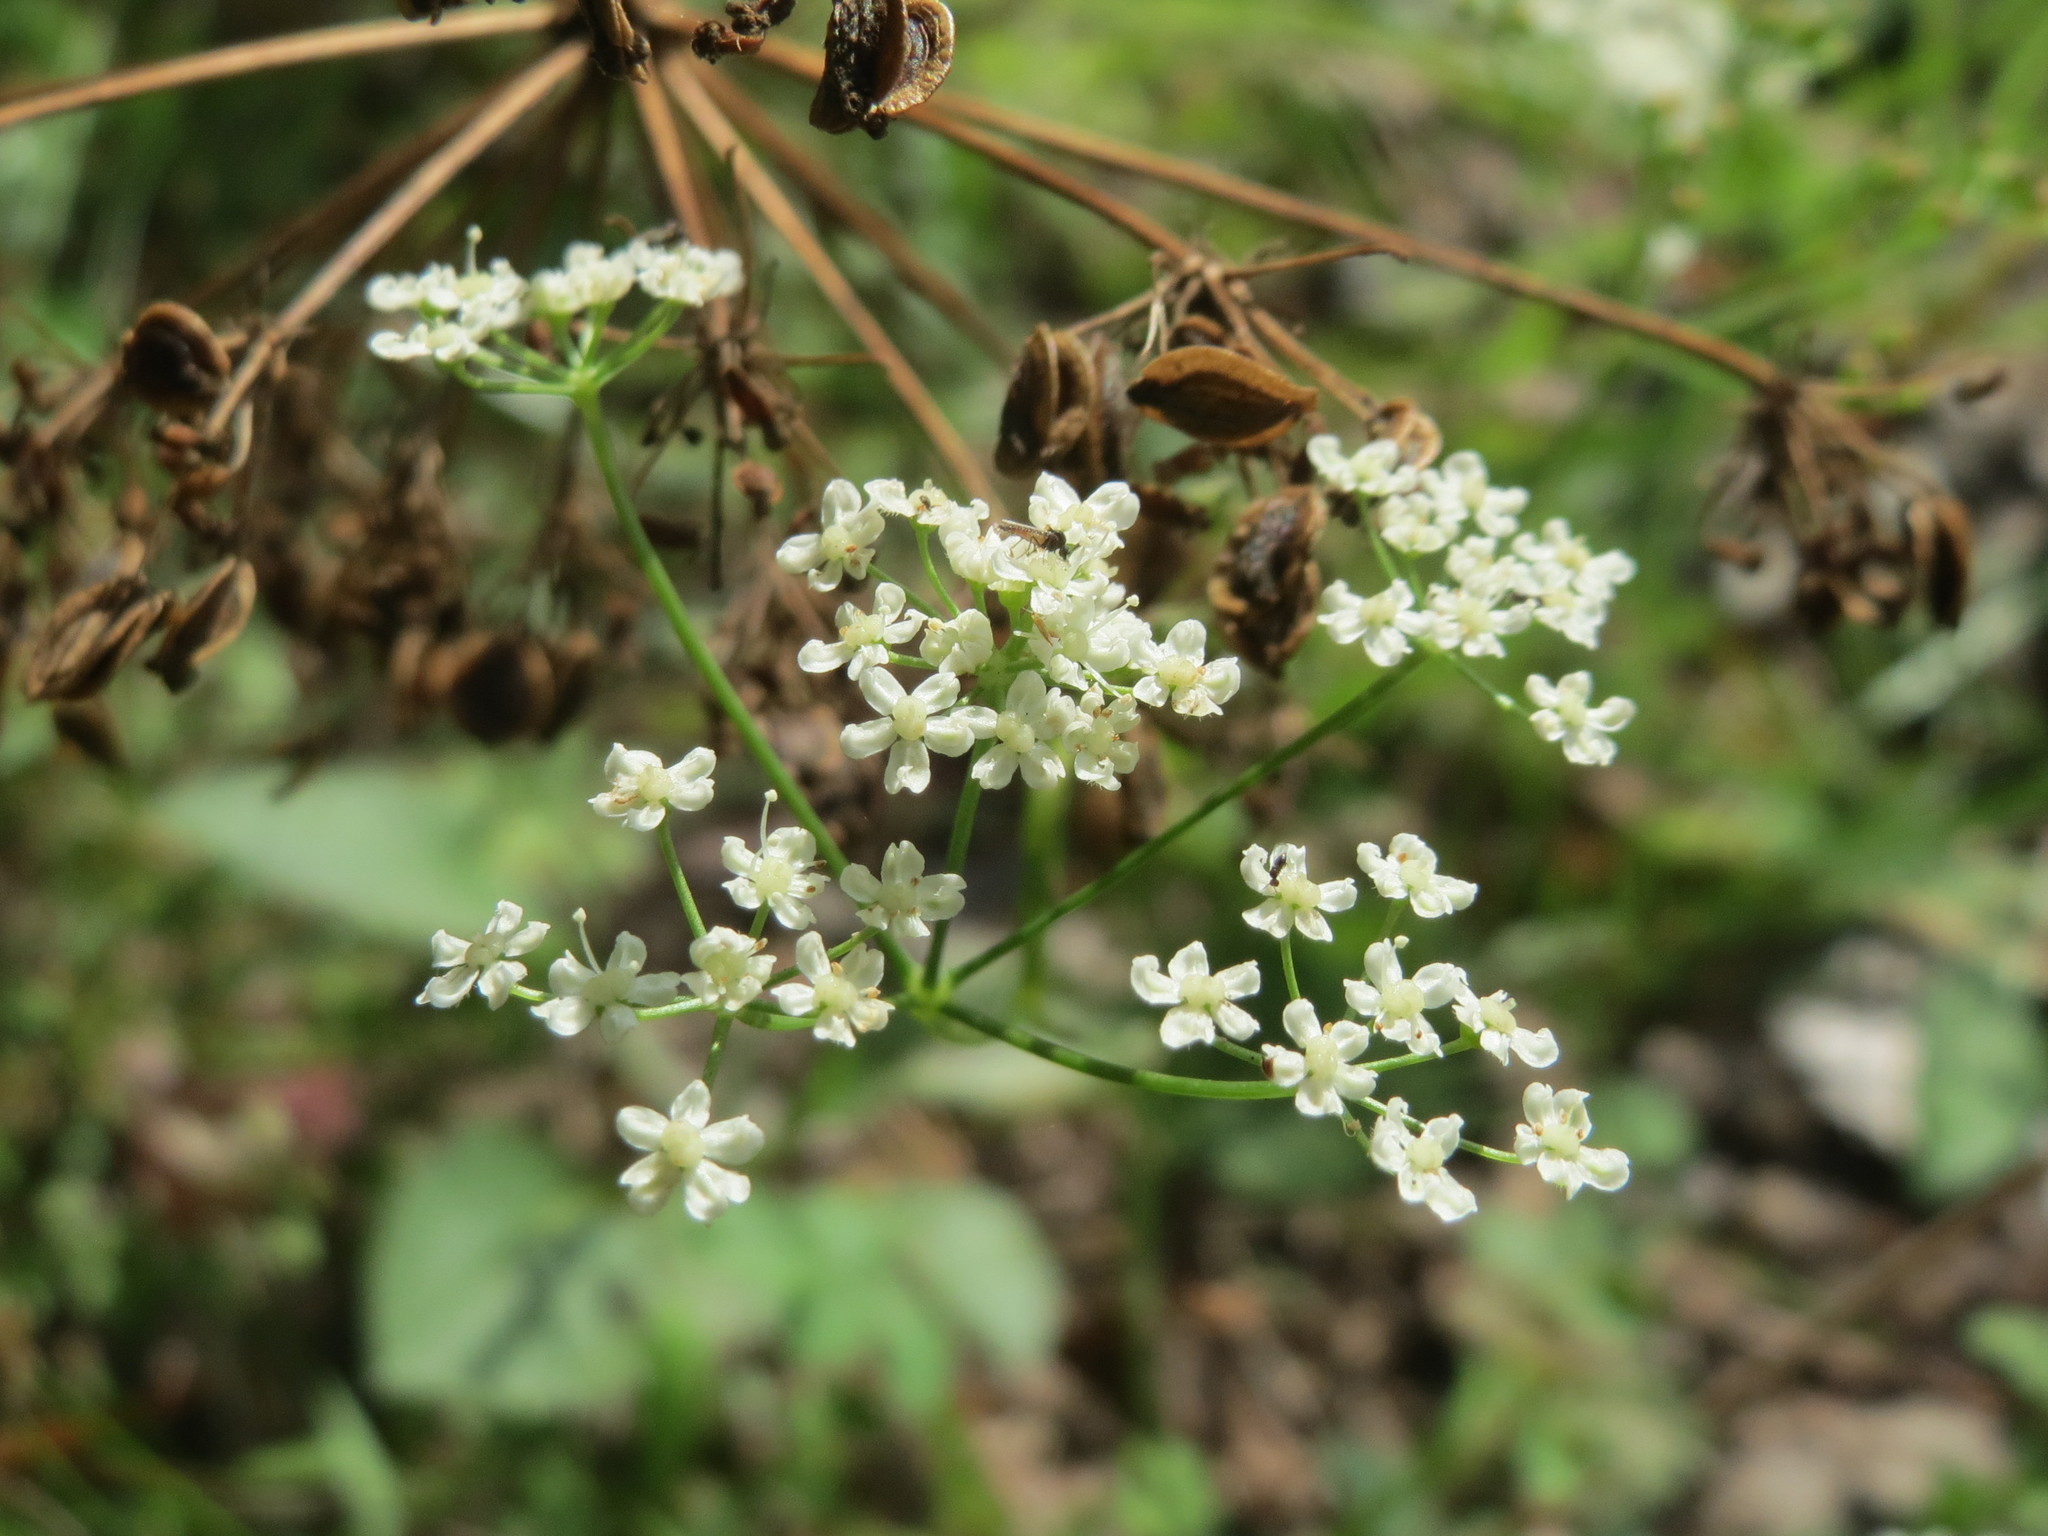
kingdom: Plantae
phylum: Tracheophyta
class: Magnoliopsida
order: Apiales
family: Apiaceae
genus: Oreoselinum
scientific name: Oreoselinum nigrum
